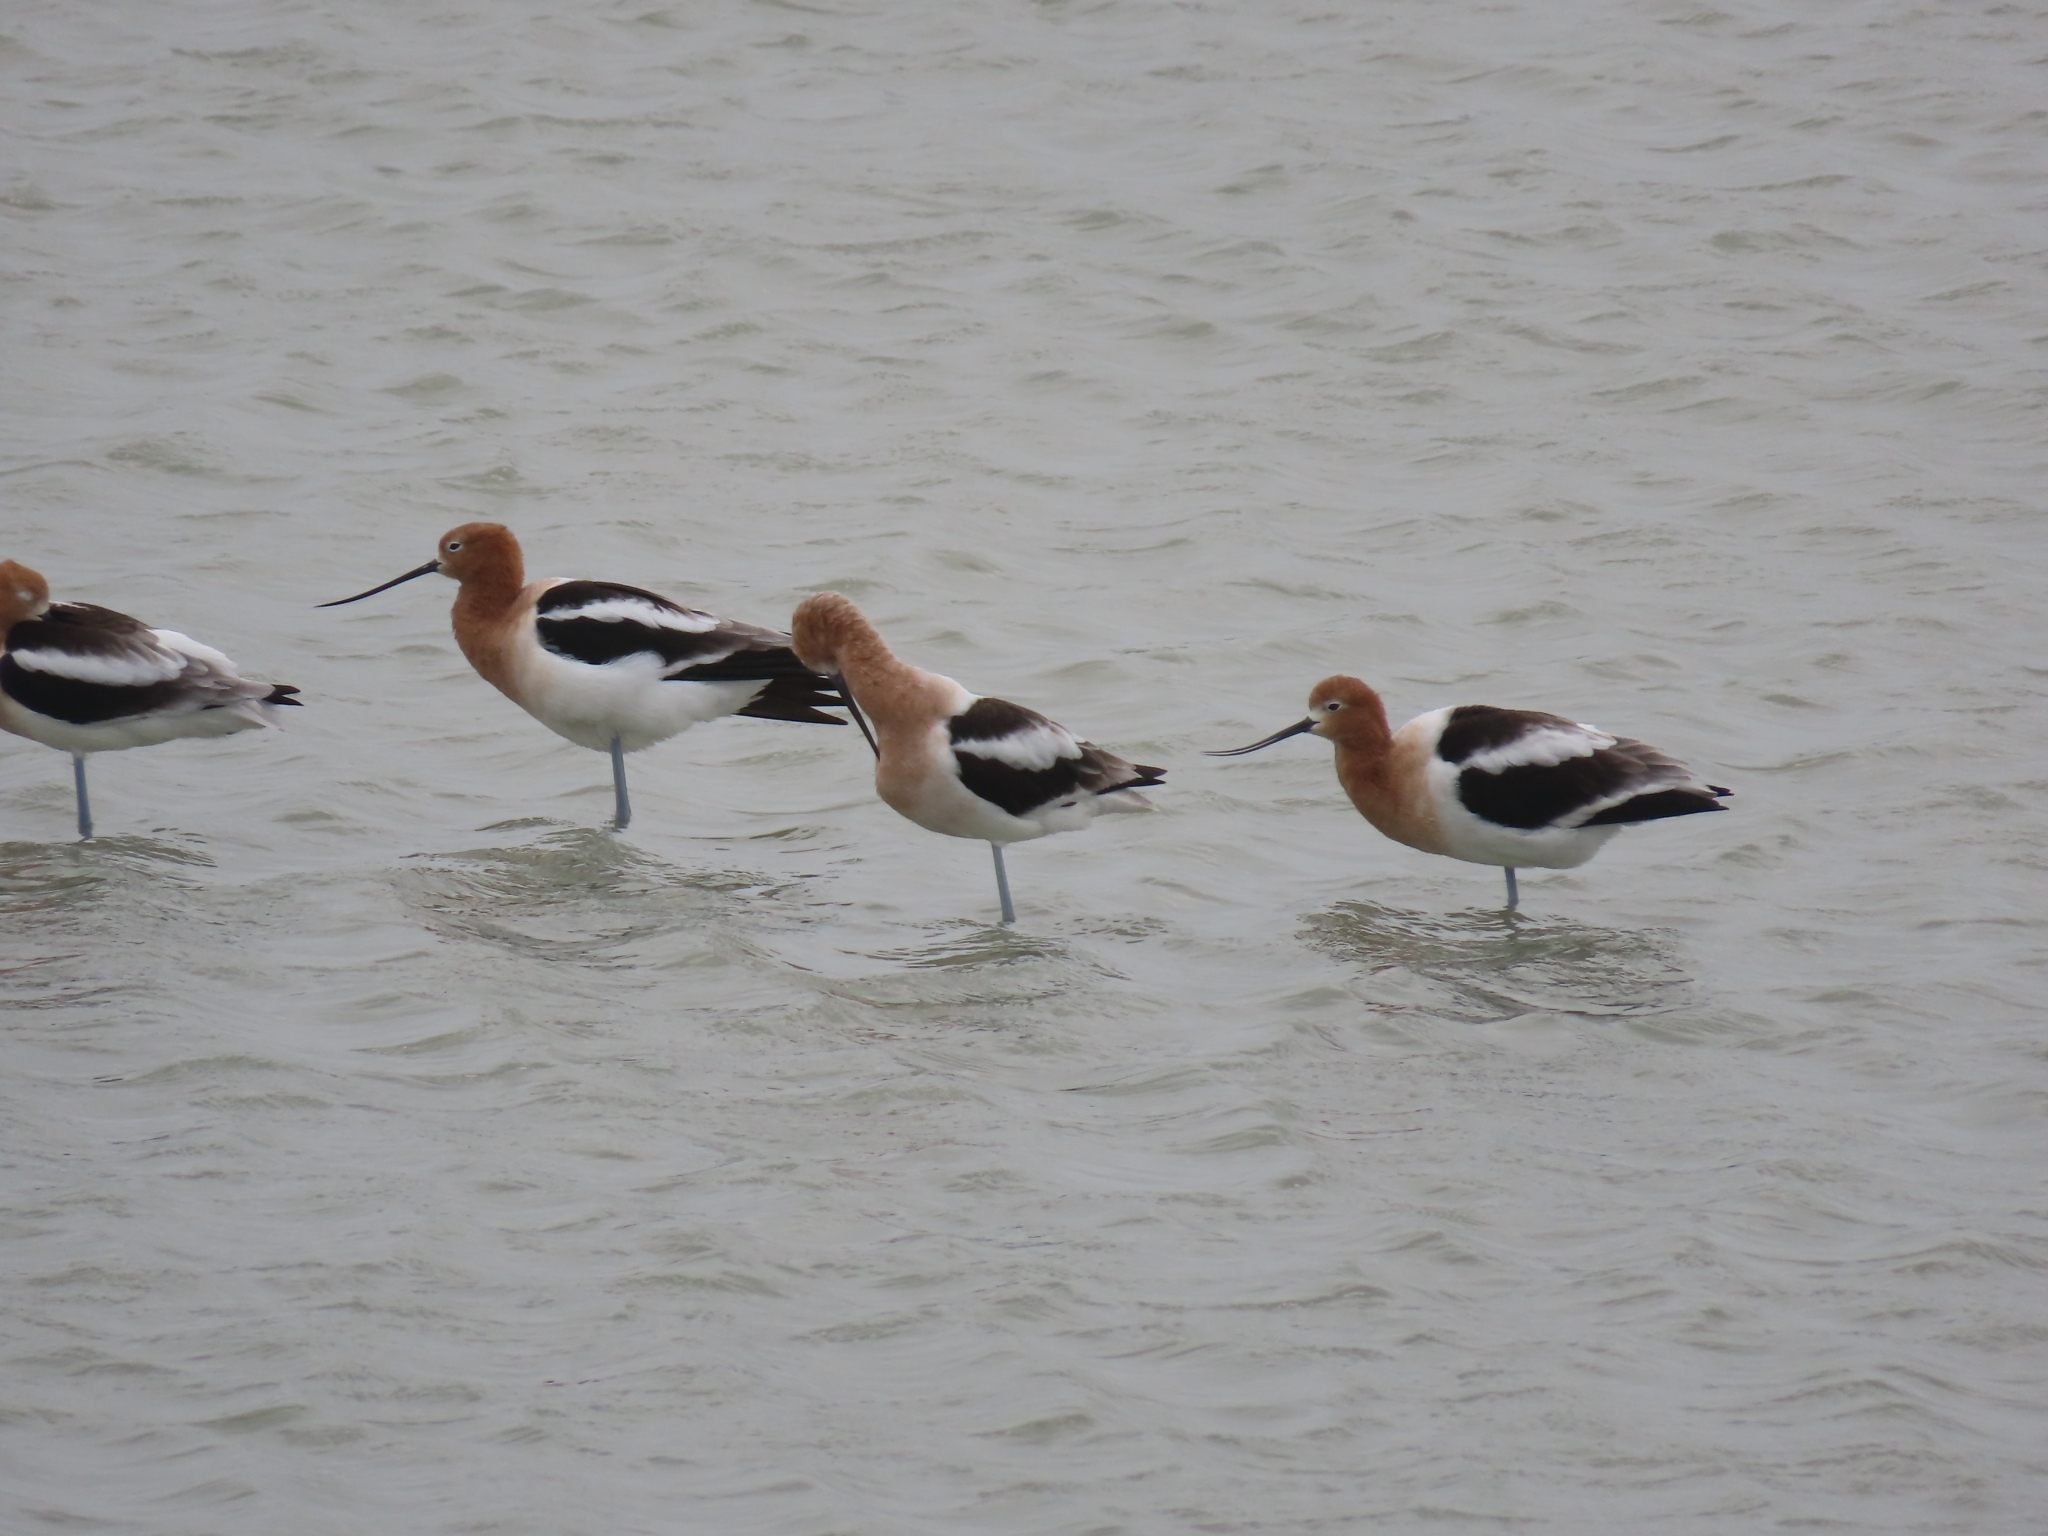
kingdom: Animalia
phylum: Chordata
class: Aves
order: Charadriiformes
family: Recurvirostridae
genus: Recurvirostra
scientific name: Recurvirostra americana
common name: American avocet
